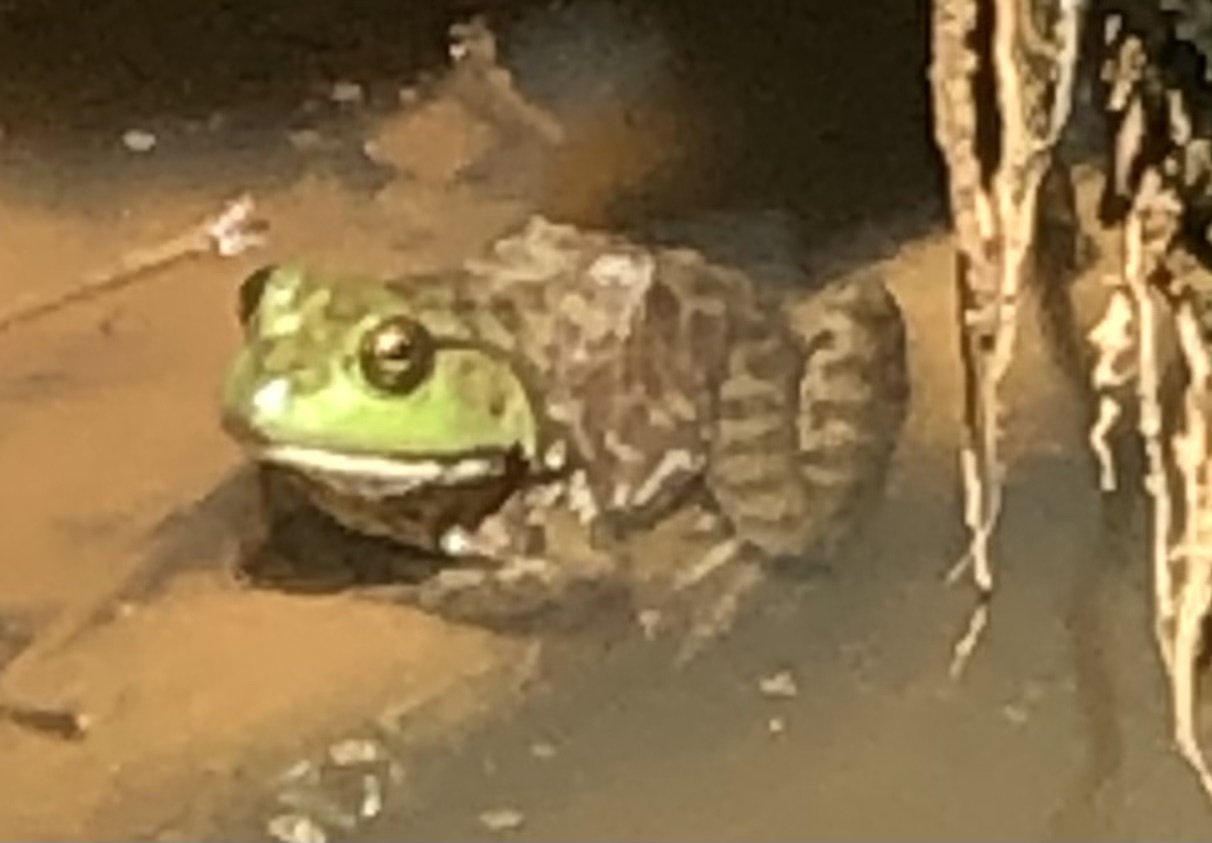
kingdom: Animalia
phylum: Chordata
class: Amphibia
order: Anura
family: Ranidae
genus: Lithobates
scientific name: Lithobates catesbeianus
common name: American bullfrog
